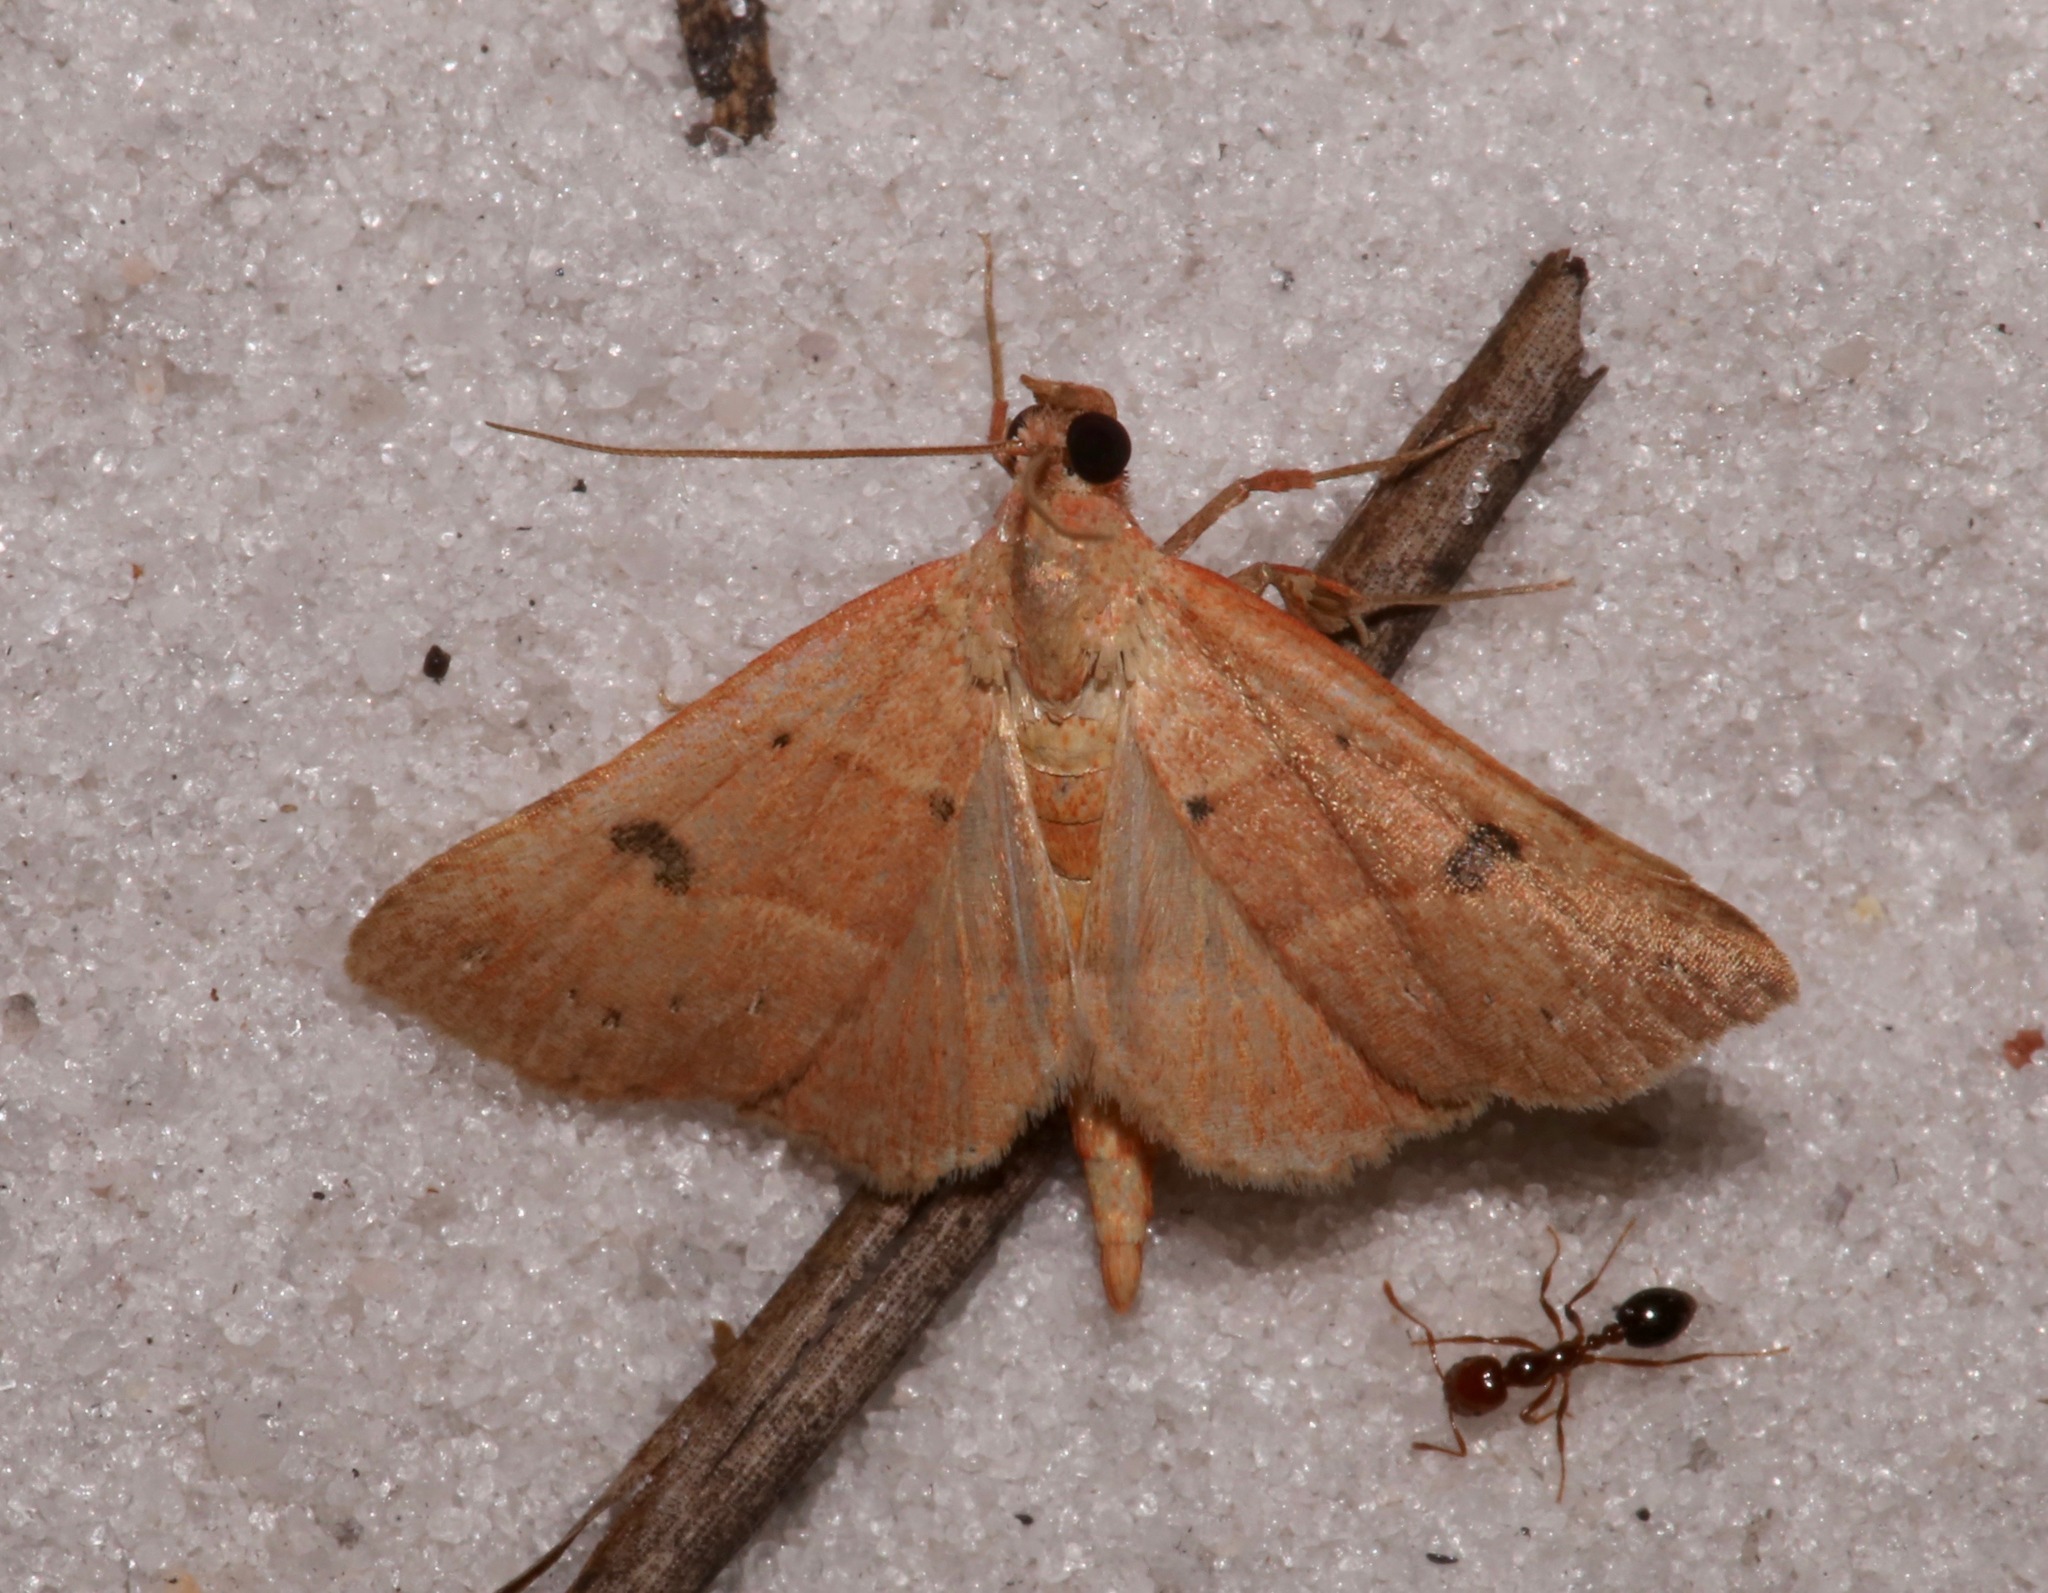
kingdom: Animalia
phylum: Arthropoda
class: Insecta
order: Lepidoptera
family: Erebidae
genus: Hemeroplanis
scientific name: Hemeroplanis habitalis
